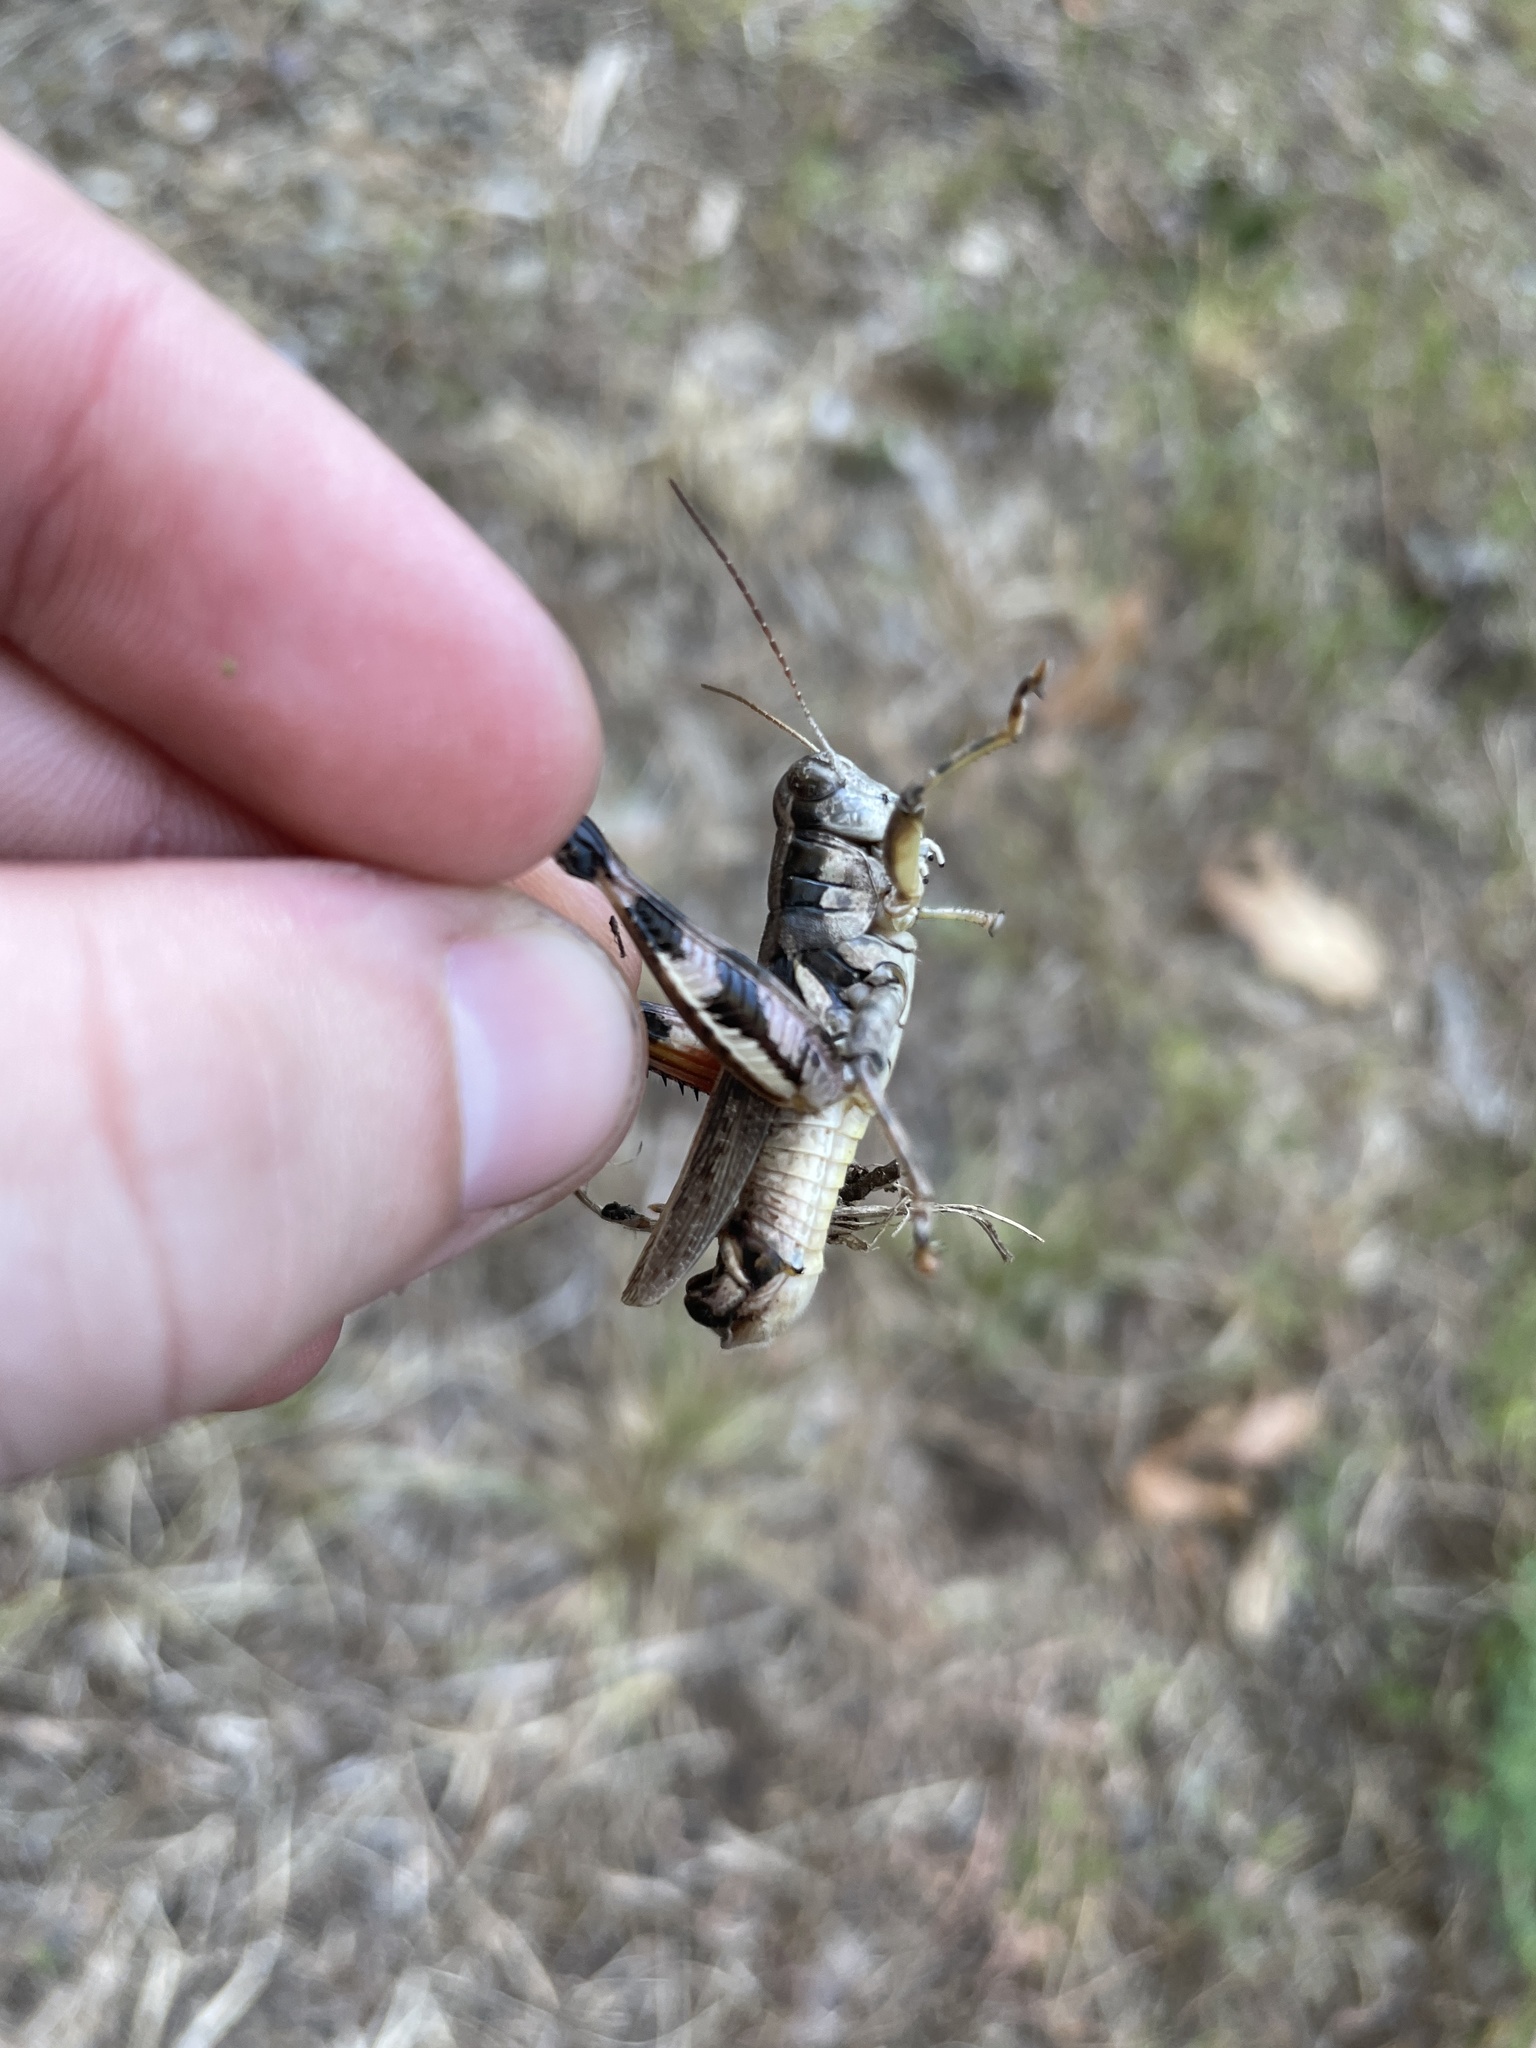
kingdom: Animalia
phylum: Arthropoda
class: Insecta
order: Orthoptera
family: Acrididae
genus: Melanoplus
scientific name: Melanoplus ponderosus
